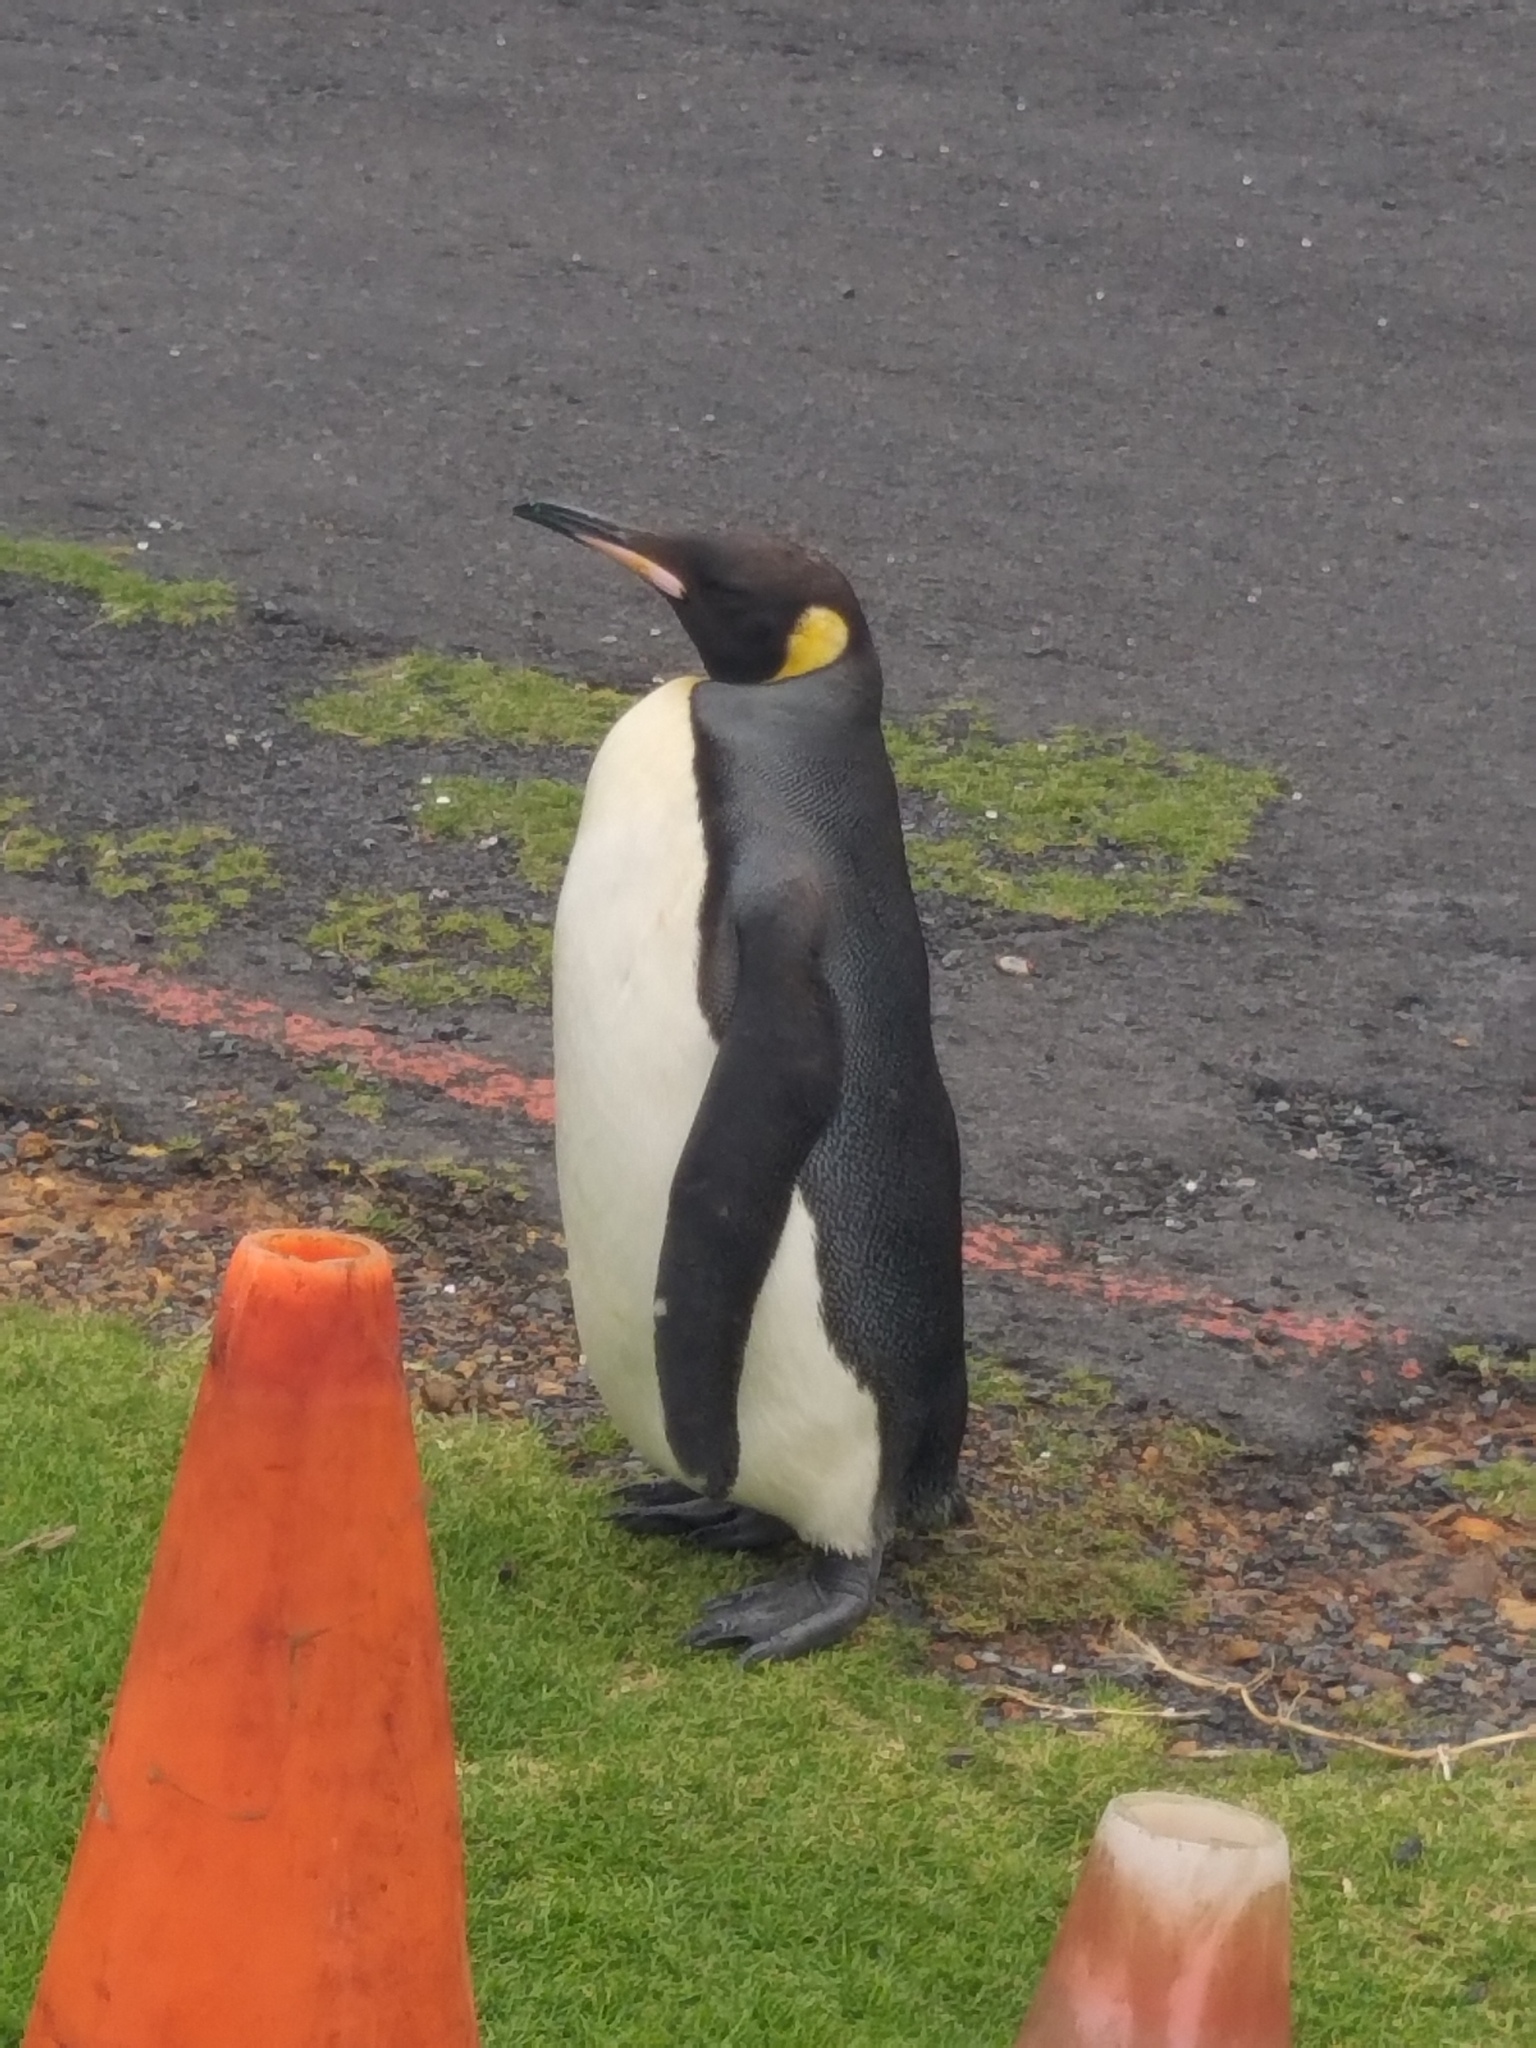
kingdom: Animalia
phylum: Chordata
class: Aves
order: Sphenisciformes
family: Spheniscidae
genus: Aptenodytes
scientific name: Aptenodytes patagonicus
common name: King penguin
